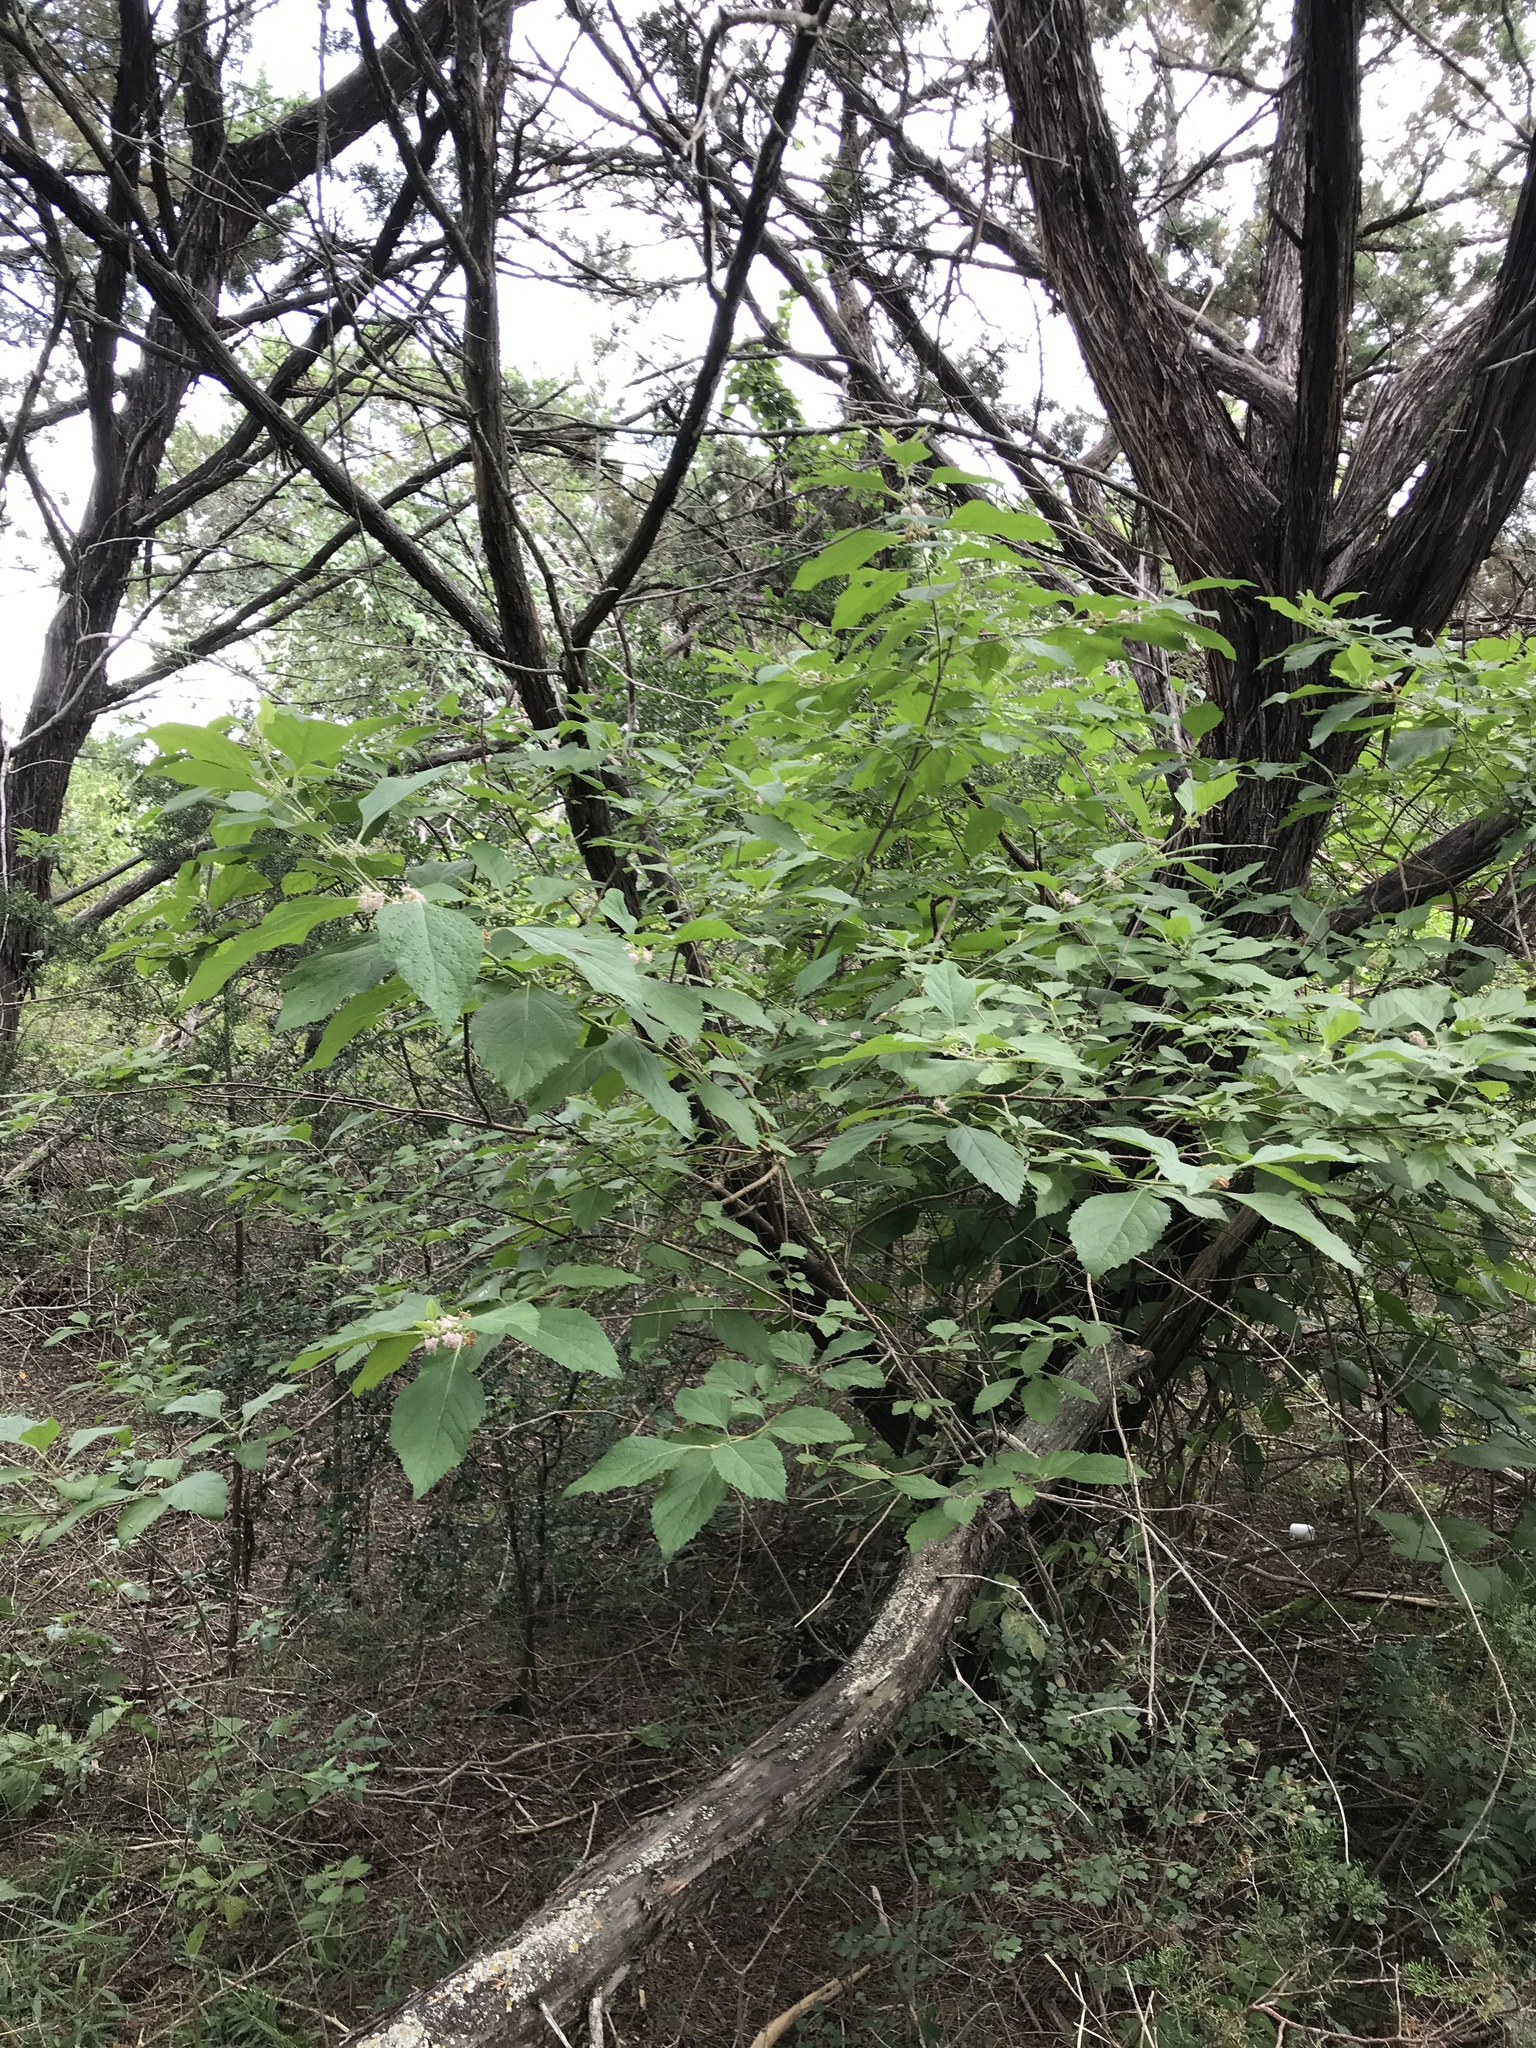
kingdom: Plantae
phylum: Tracheophyta
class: Magnoliopsida
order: Lamiales
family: Lamiaceae
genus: Callicarpa
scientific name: Callicarpa americana
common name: American beautyberry
